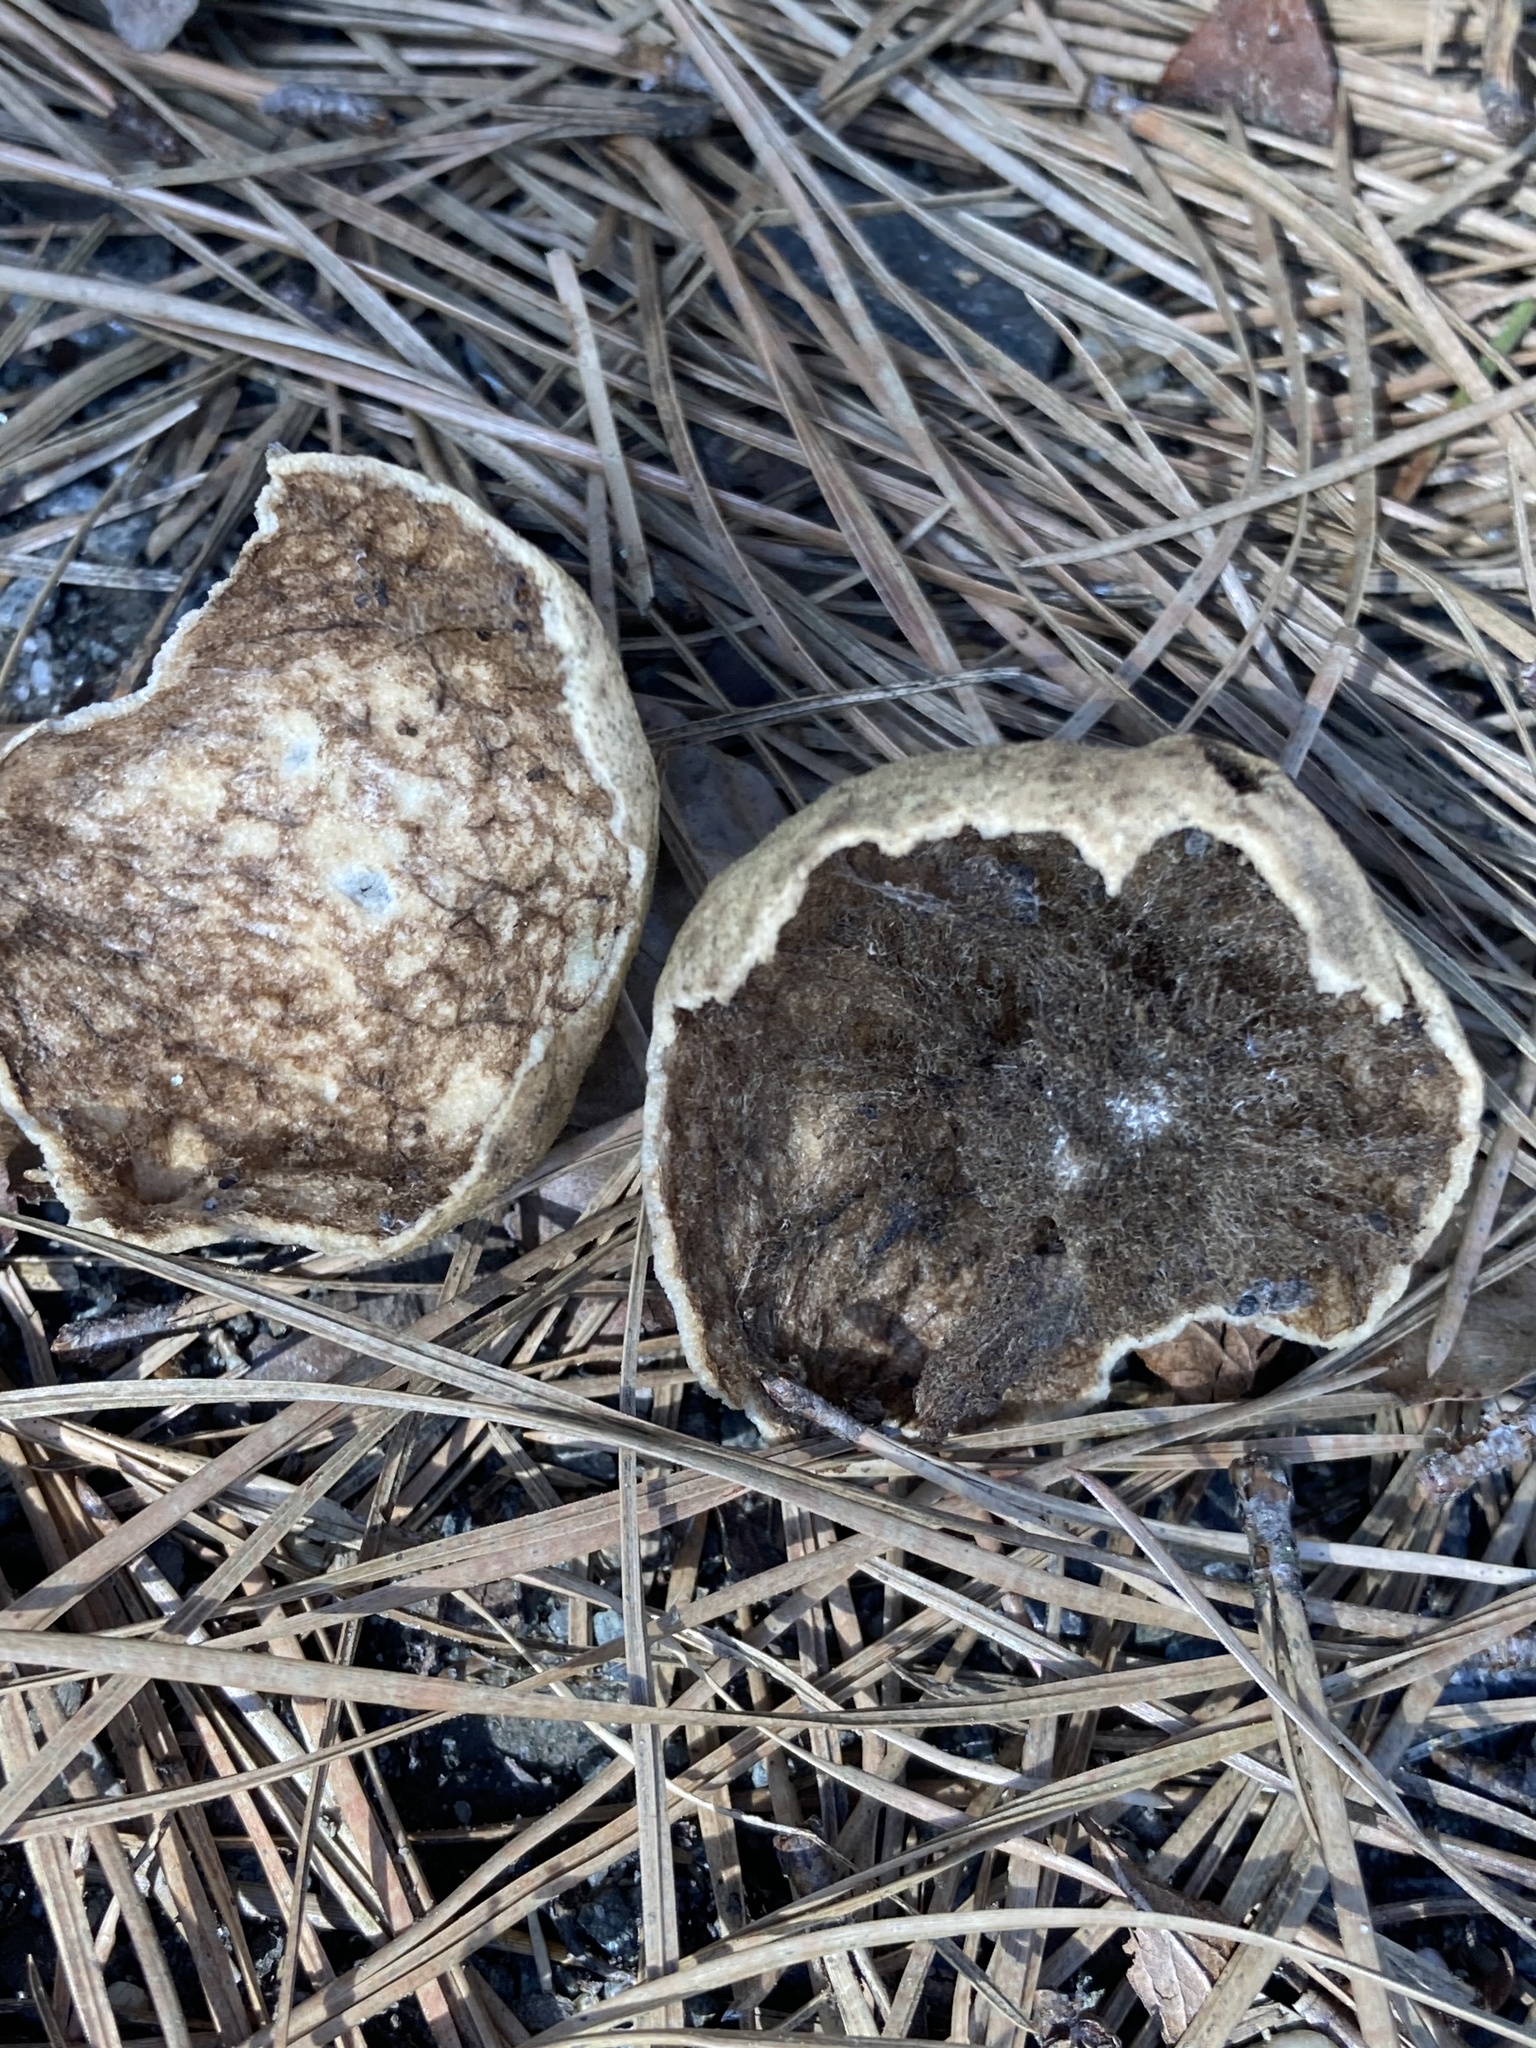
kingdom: Animalia
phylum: Arthropoda
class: Insecta
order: Hymenoptera
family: Cynipidae
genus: Amphibolips
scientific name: Amphibolips
